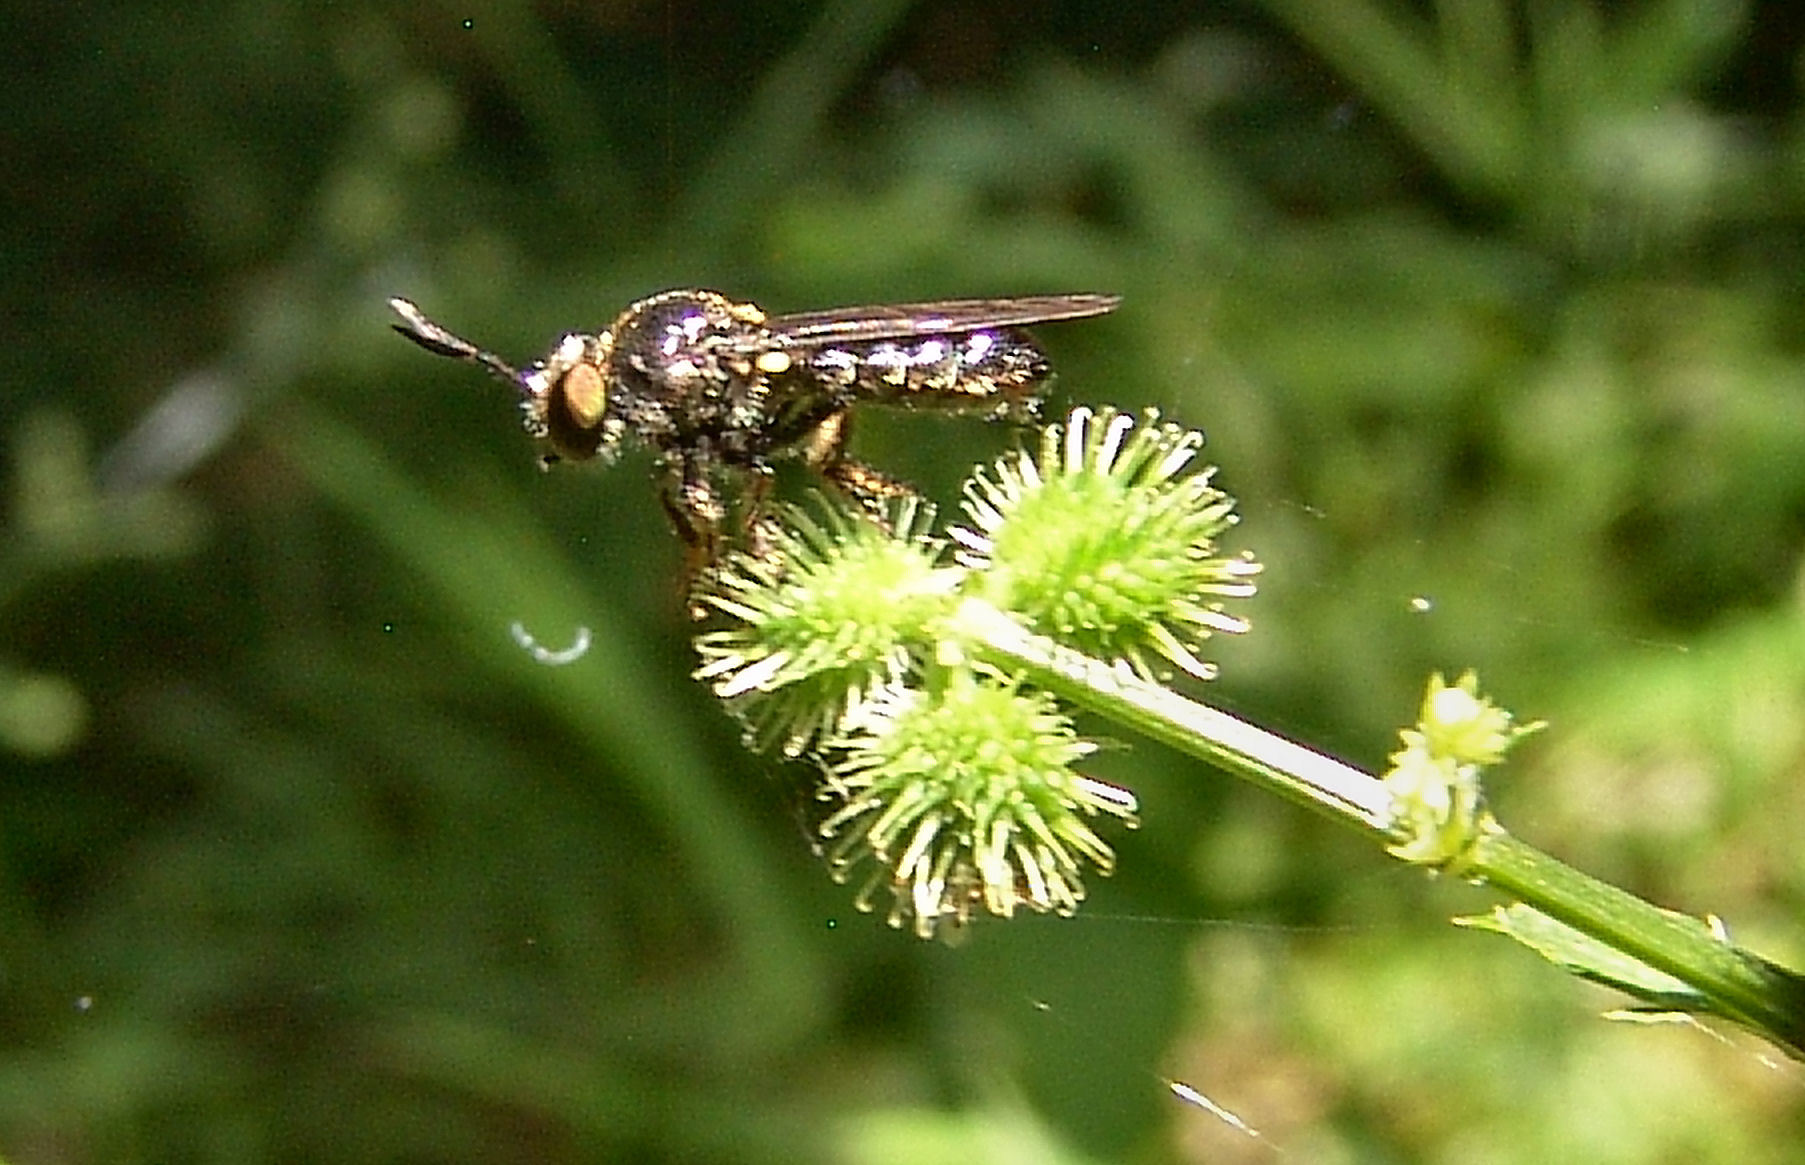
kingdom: Animalia
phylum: Arthropoda
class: Insecta
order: Diptera
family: Asilidae
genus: Cerotainia
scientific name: Cerotainia
